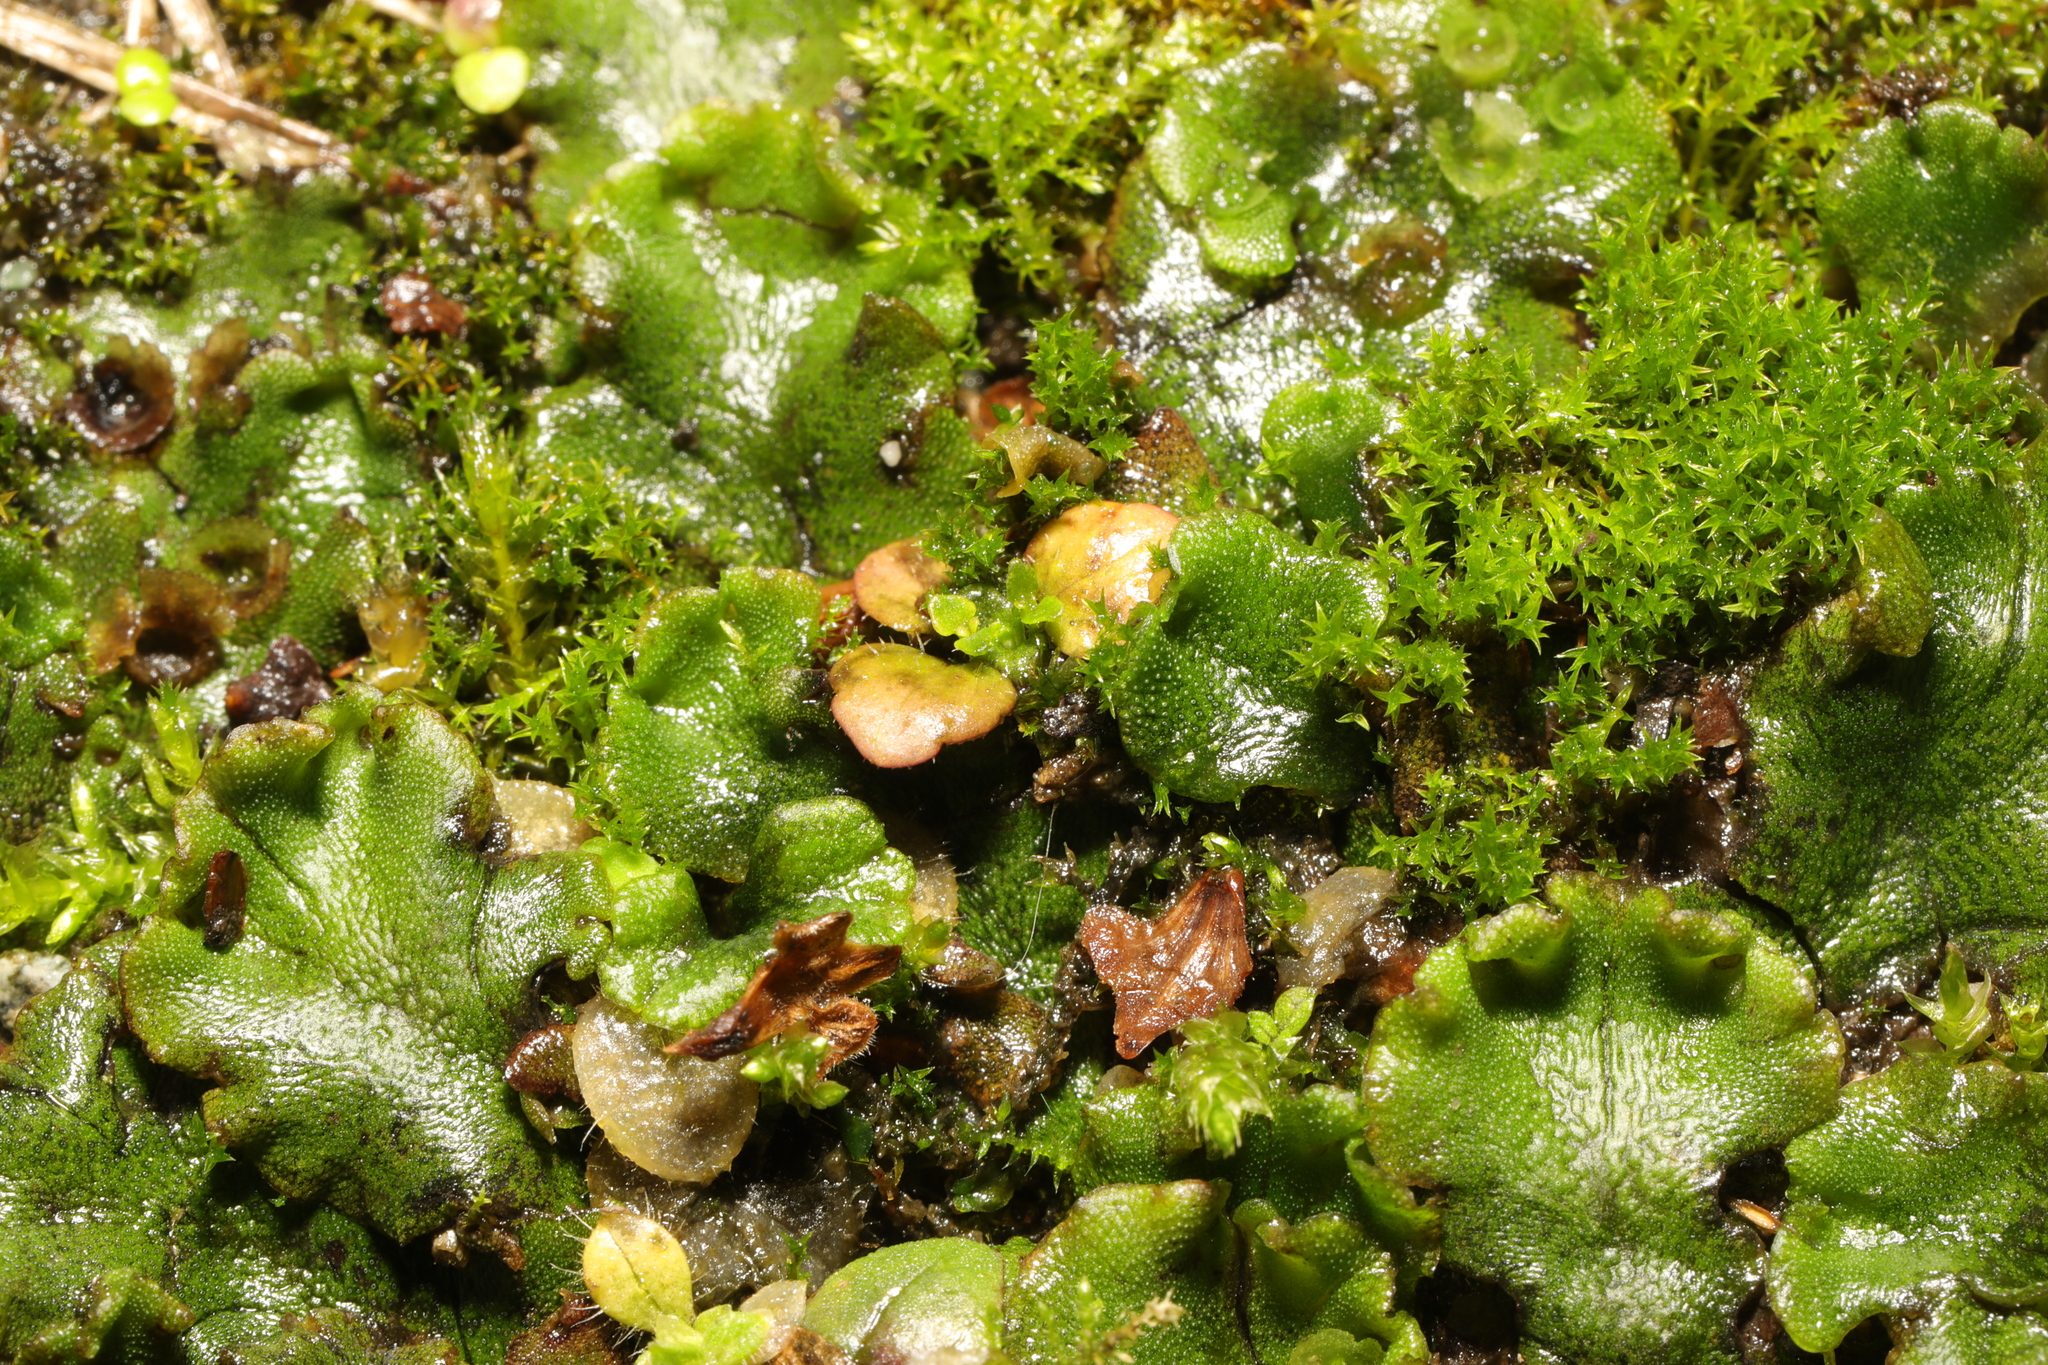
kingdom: Plantae
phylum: Marchantiophyta
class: Marchantiopsida
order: Marchantiales
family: Marchantiaceae
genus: Marchantia
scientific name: Marchantia polymorpha
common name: Common liverwort
